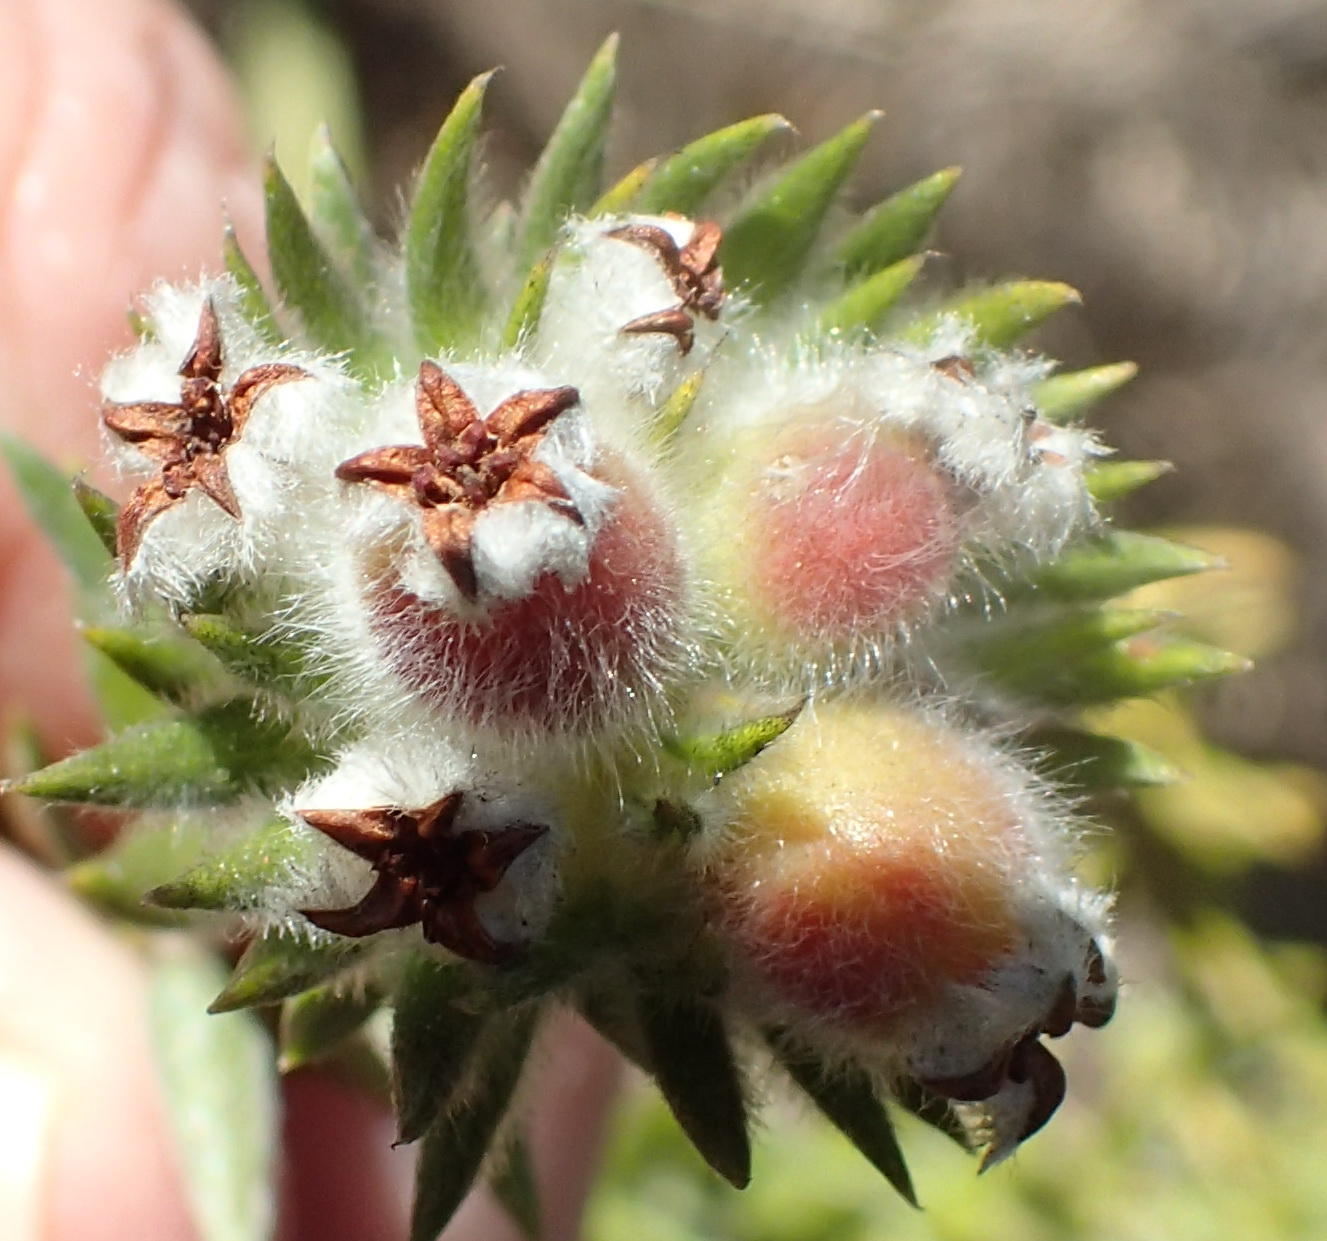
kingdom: Plantae
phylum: Tracheophyta
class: Magnoliopsida
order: Rosales
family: Rhamnaceae
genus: Phylica
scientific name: Phylica purpurea
